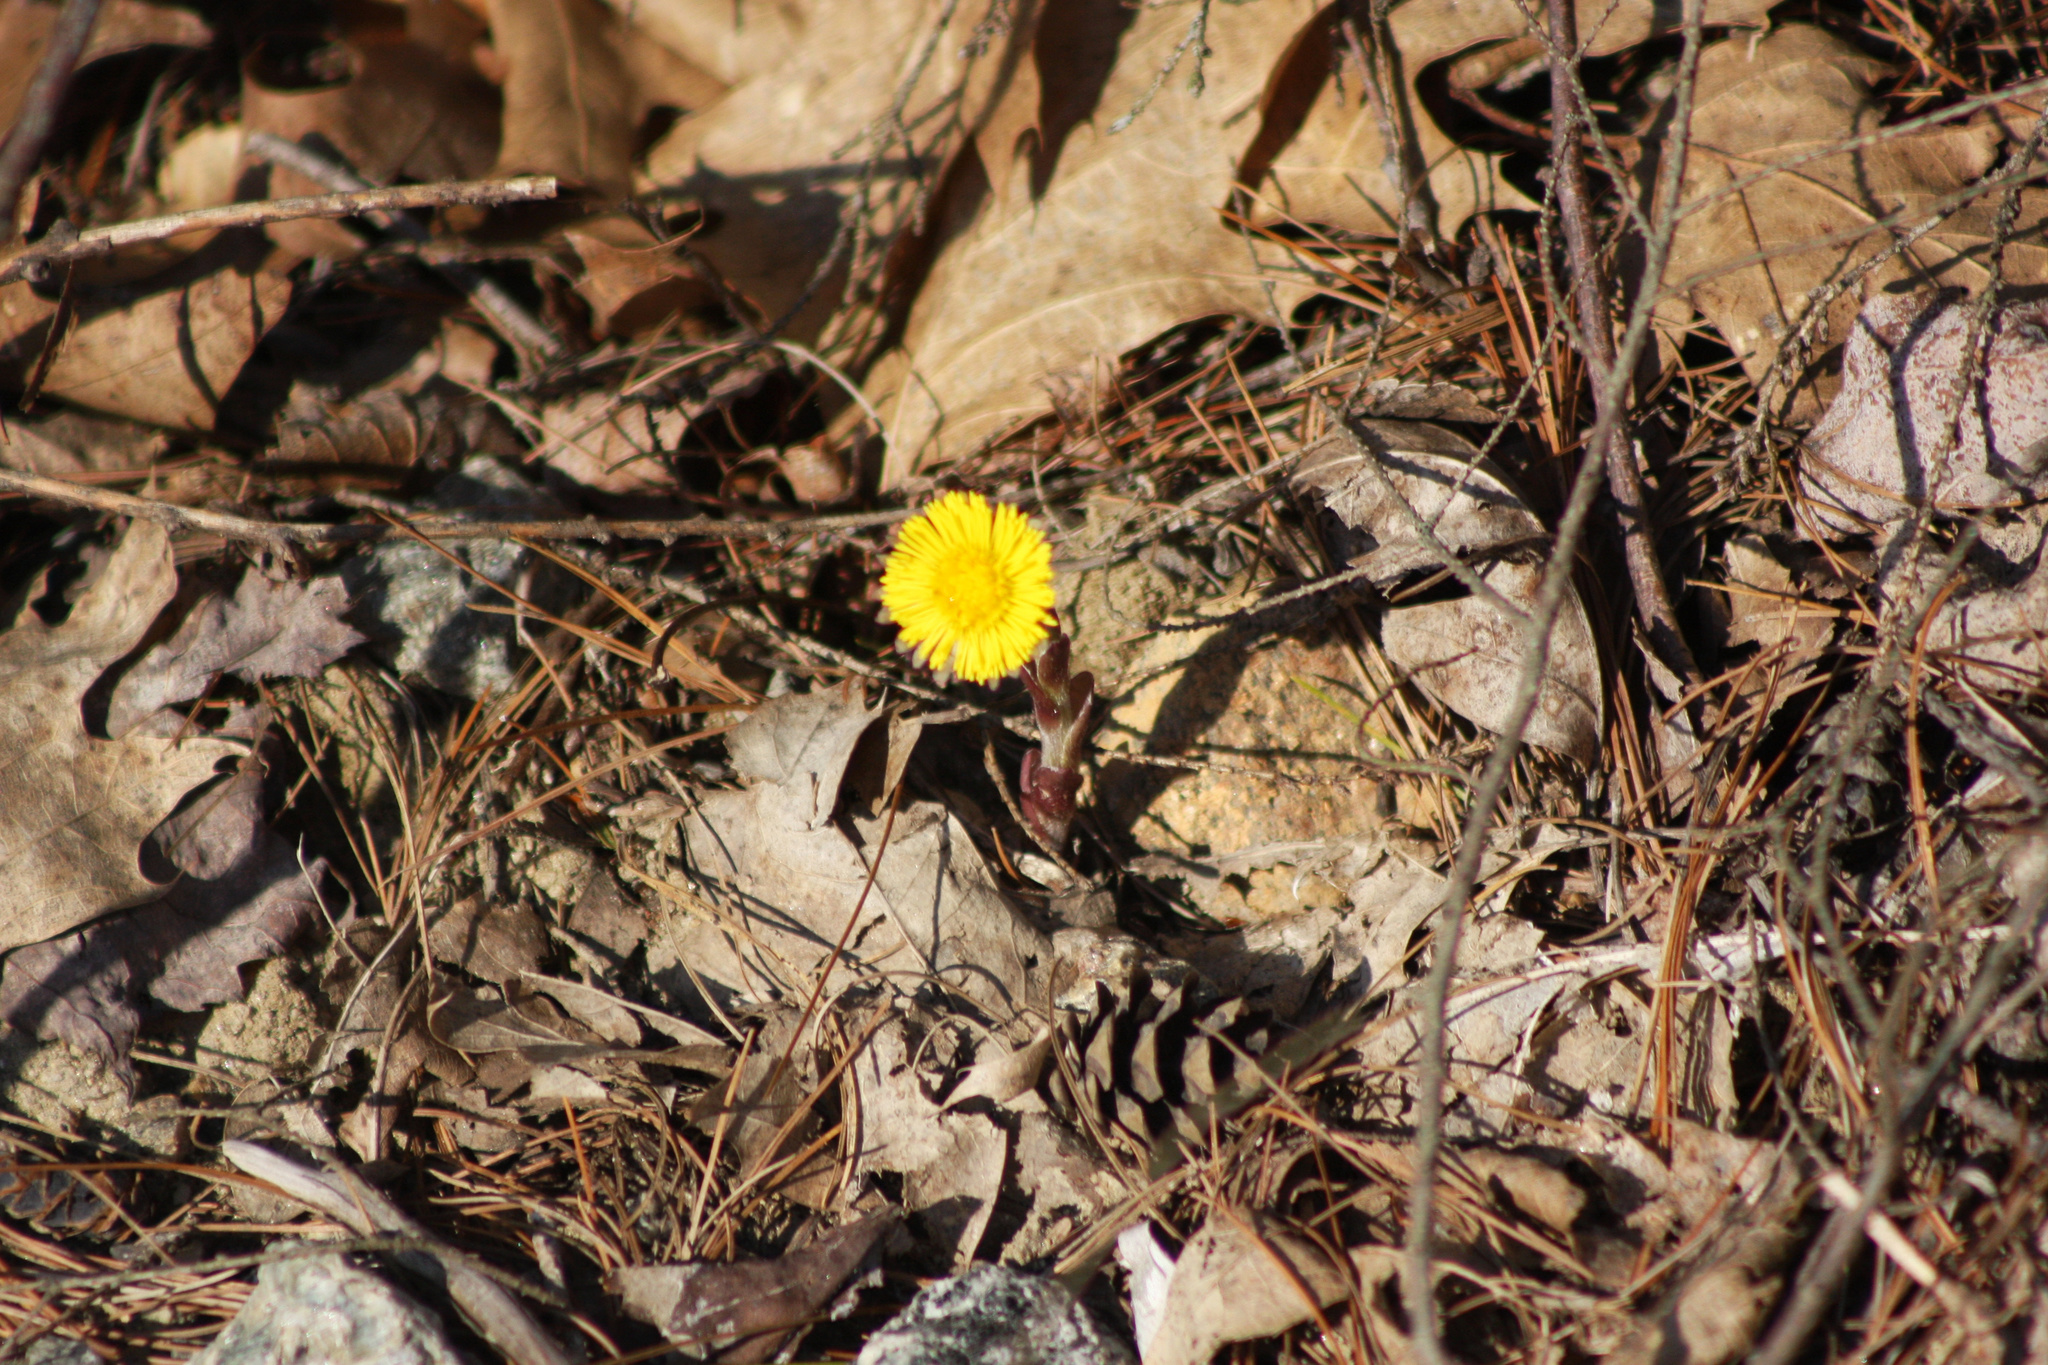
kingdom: Plantae
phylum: Tracheophyta
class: Magnoliopsida
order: Asterales
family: Asteraceae
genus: Tussilago
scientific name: Tussilago farfara
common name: Coltsfoot
